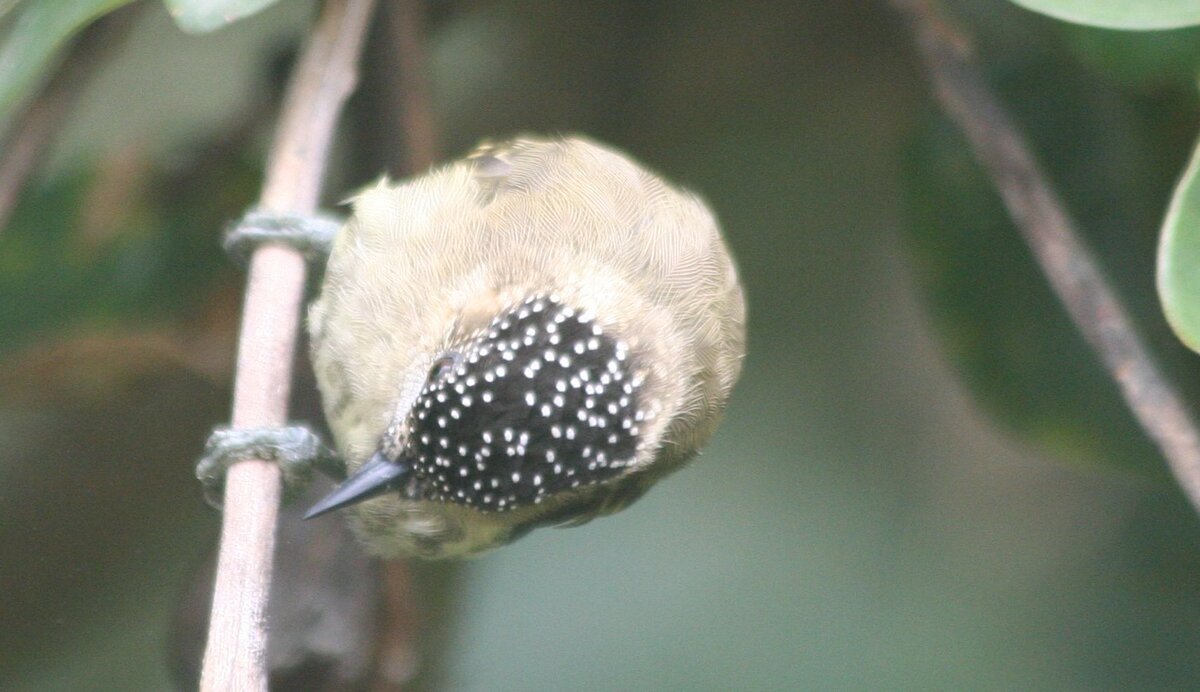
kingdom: Animalia
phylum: Chordata
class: Aves
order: Piciformes
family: Picidae
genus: Picumnus
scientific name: Picumnus olivaceus
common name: Olivaceous piculet
